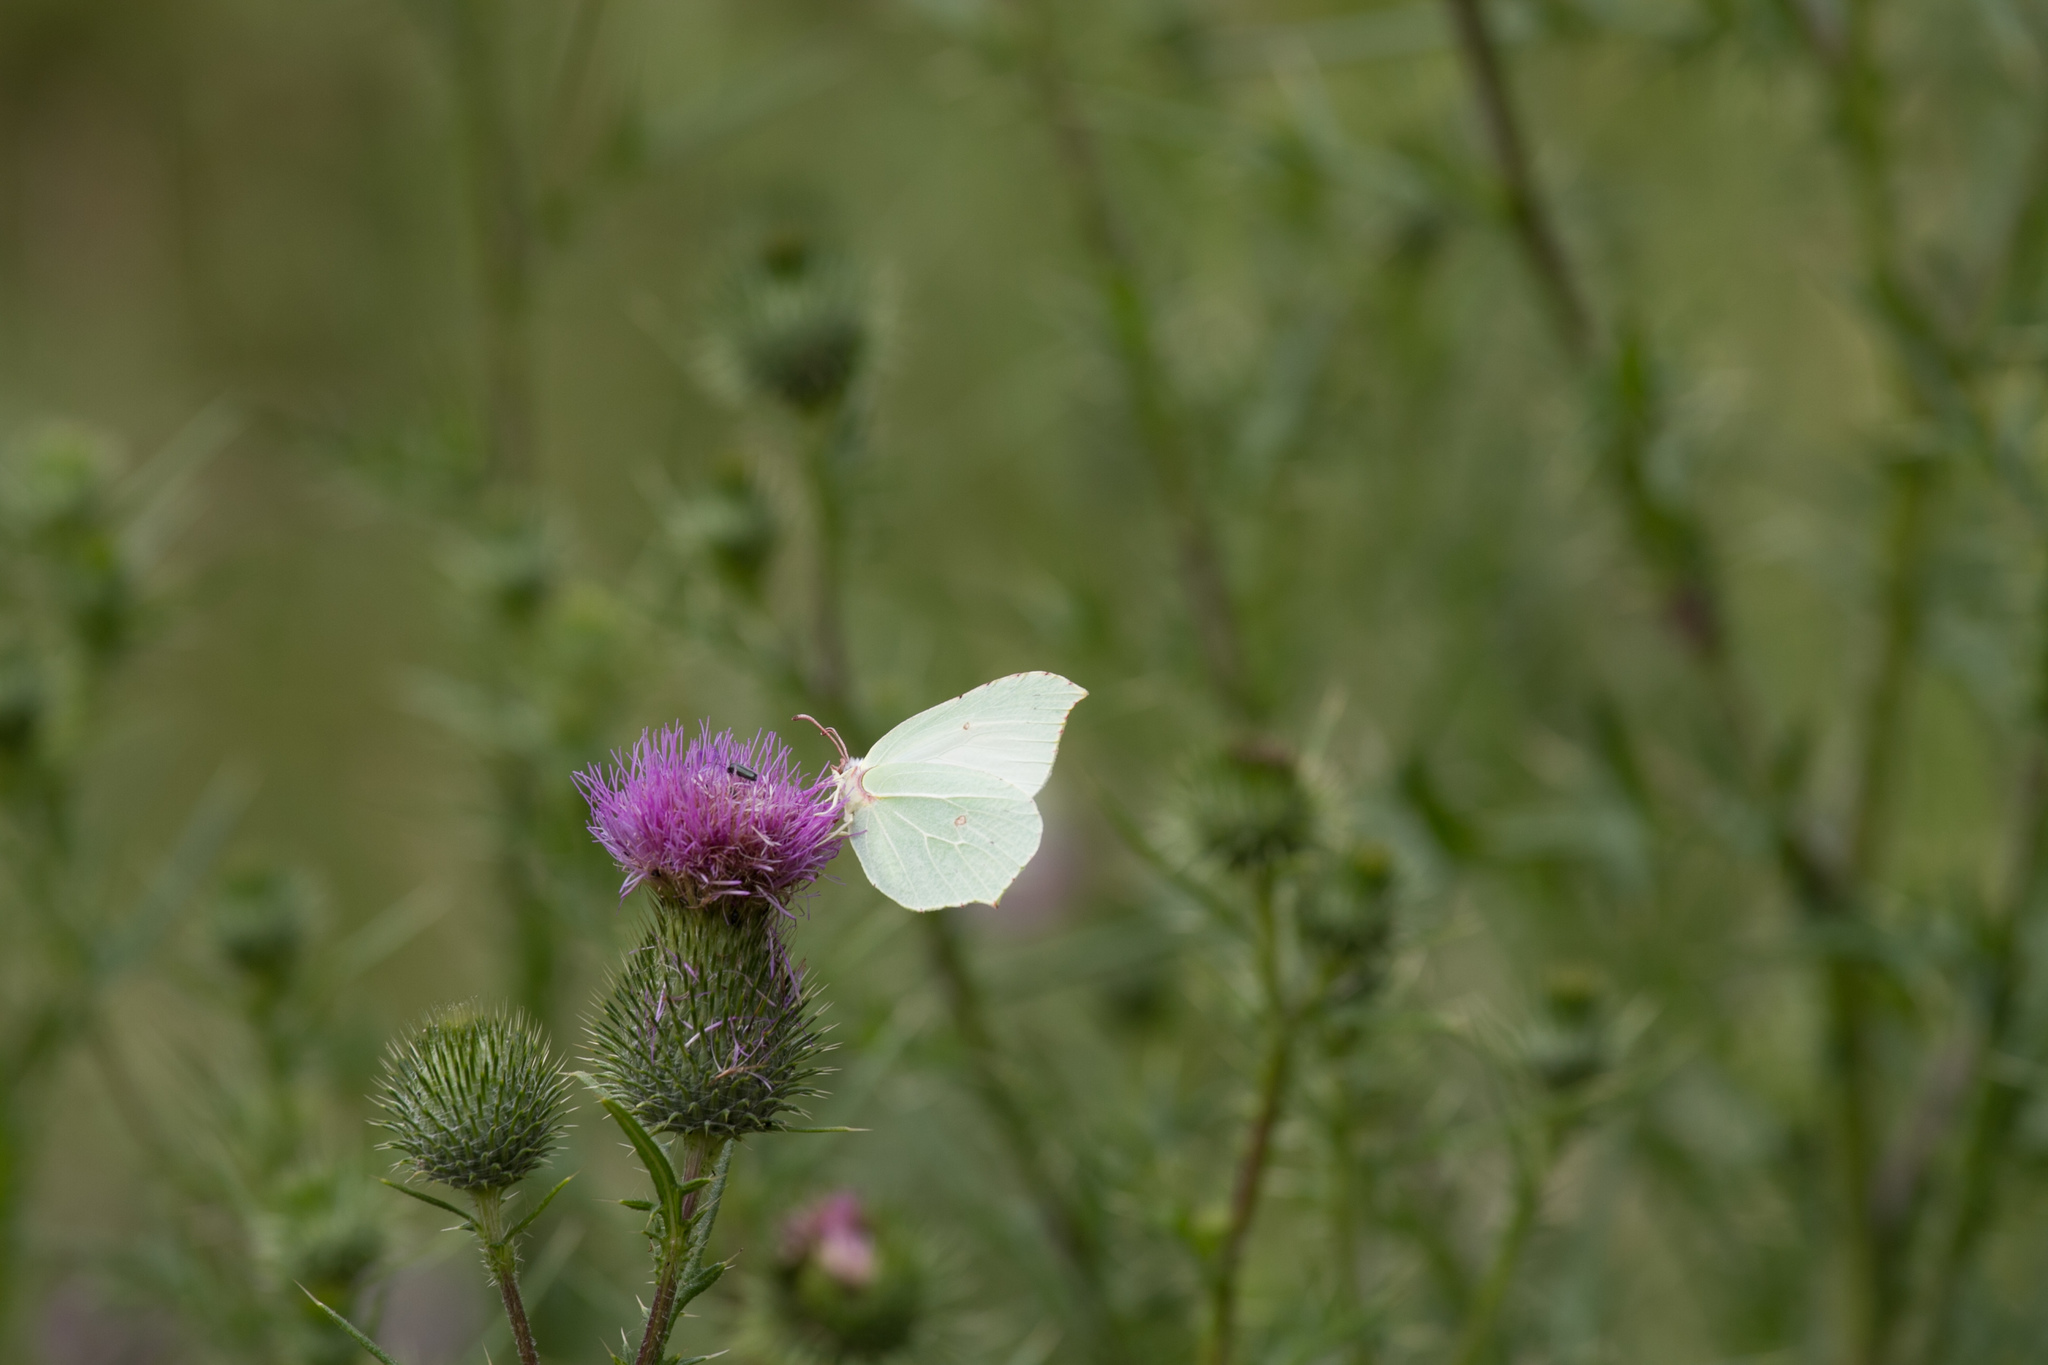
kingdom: Animalia
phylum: Arthropoda
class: Insecta
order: Lepidoptera
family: Pieridae
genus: Gonepteryx
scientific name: Gonepteryx rhamni
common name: Brimstone
